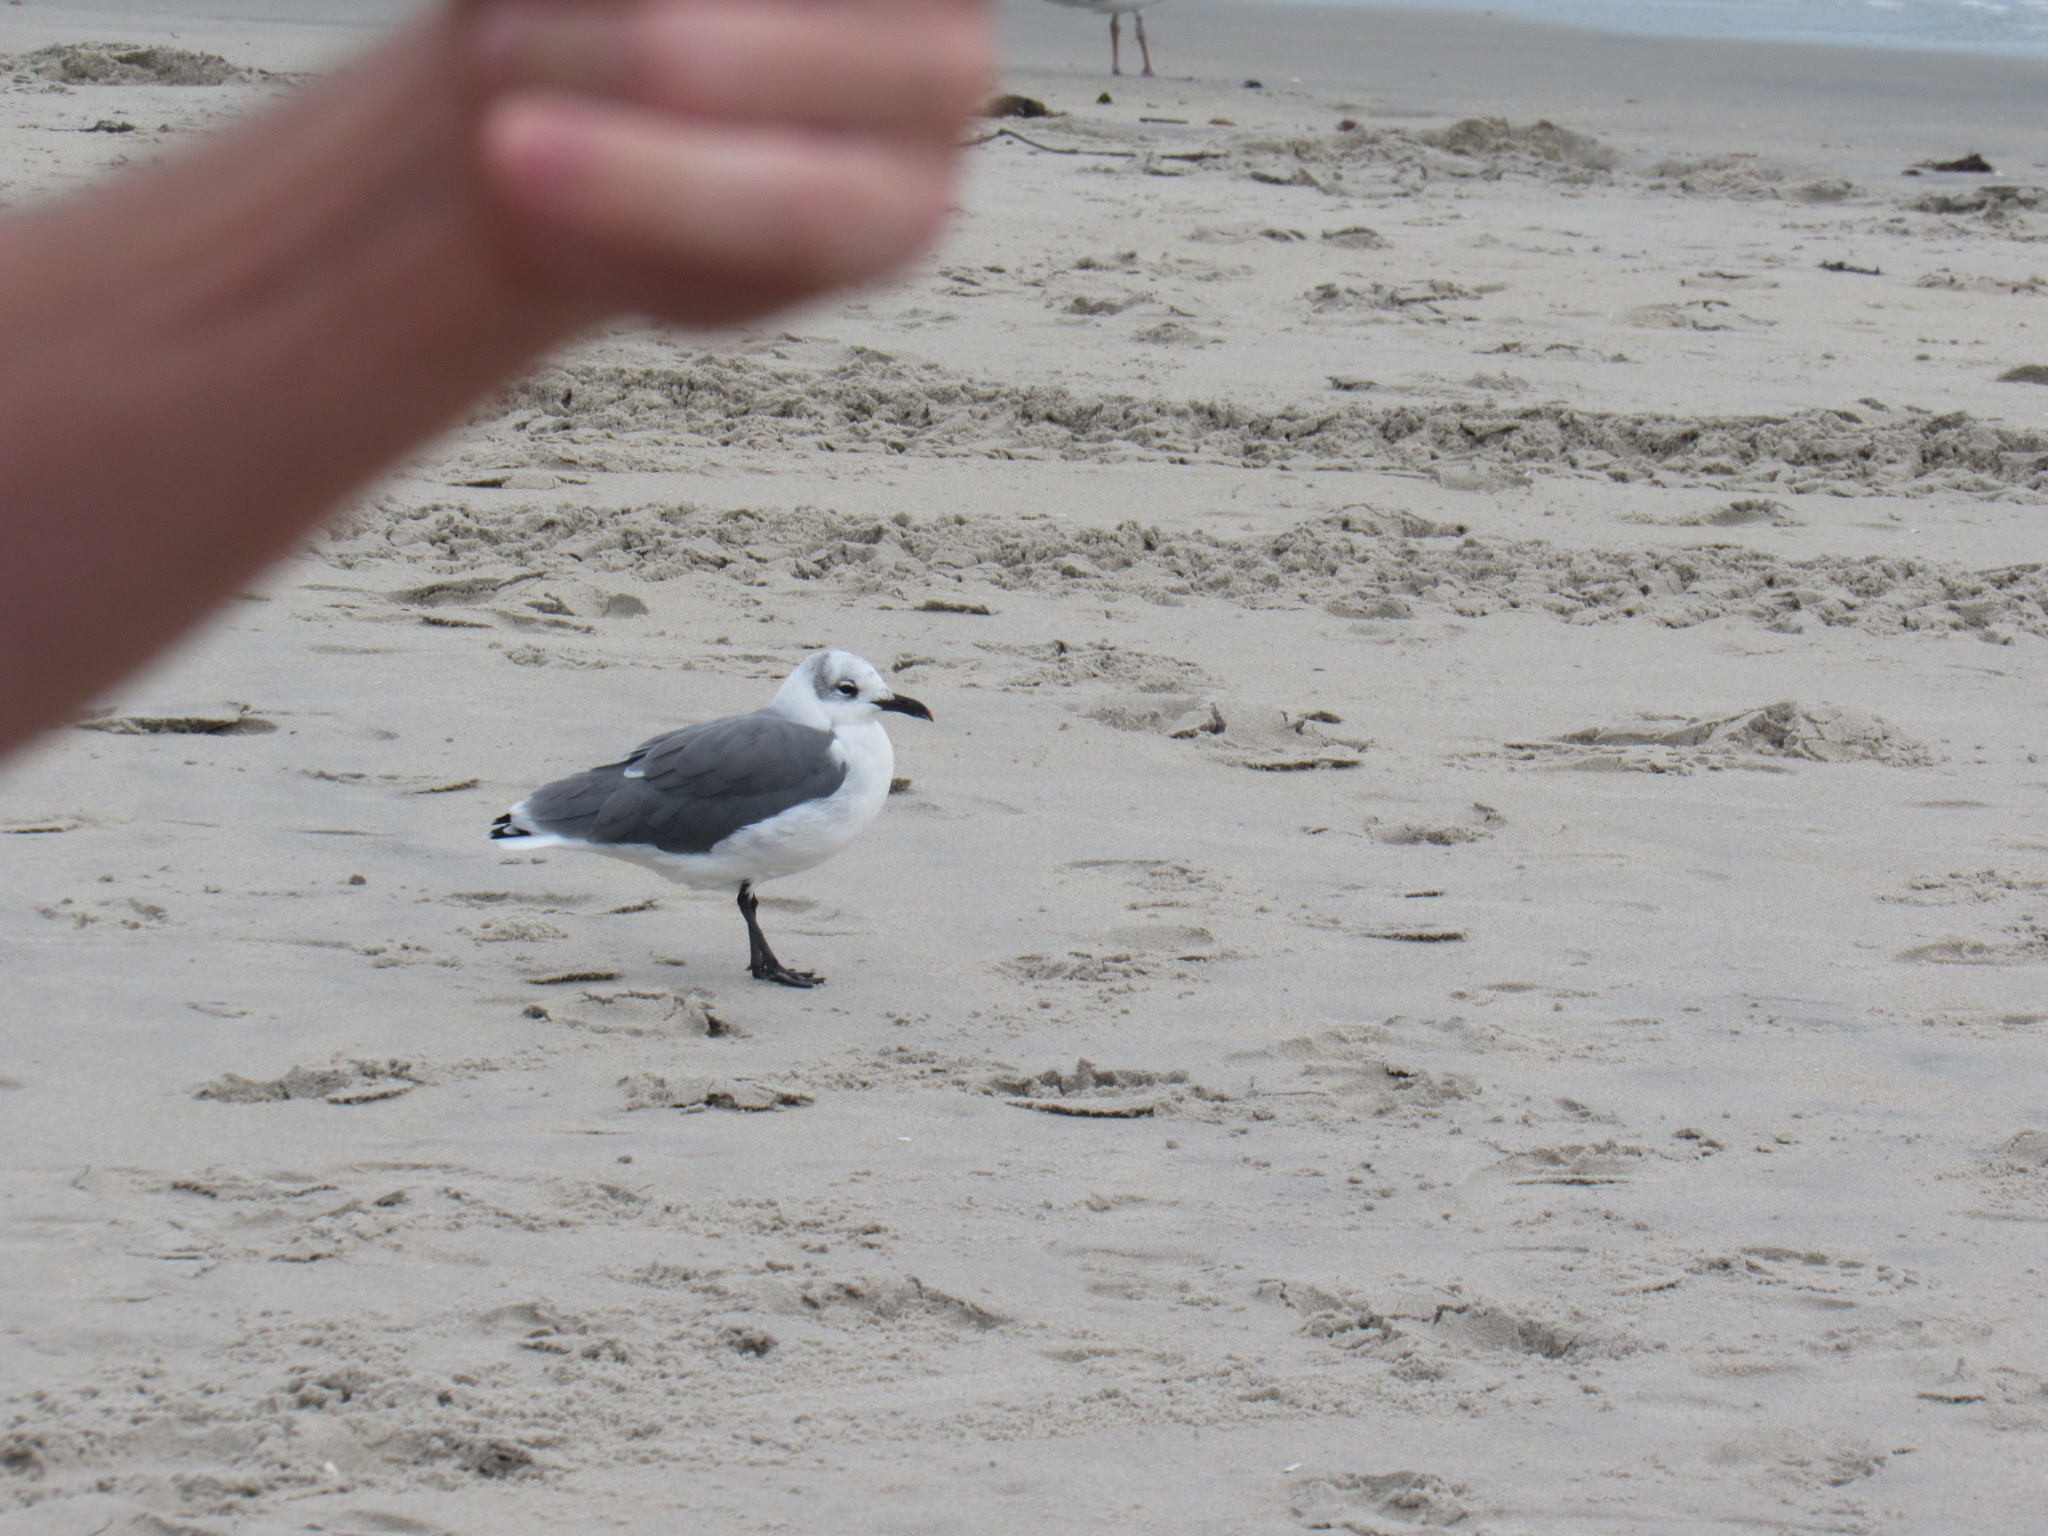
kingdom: Animalia
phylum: Chordata
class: Aves
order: Charadriiformes
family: Laridae
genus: Leucophaeus
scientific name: Leucophaeus atricilla
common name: Laughing gull
